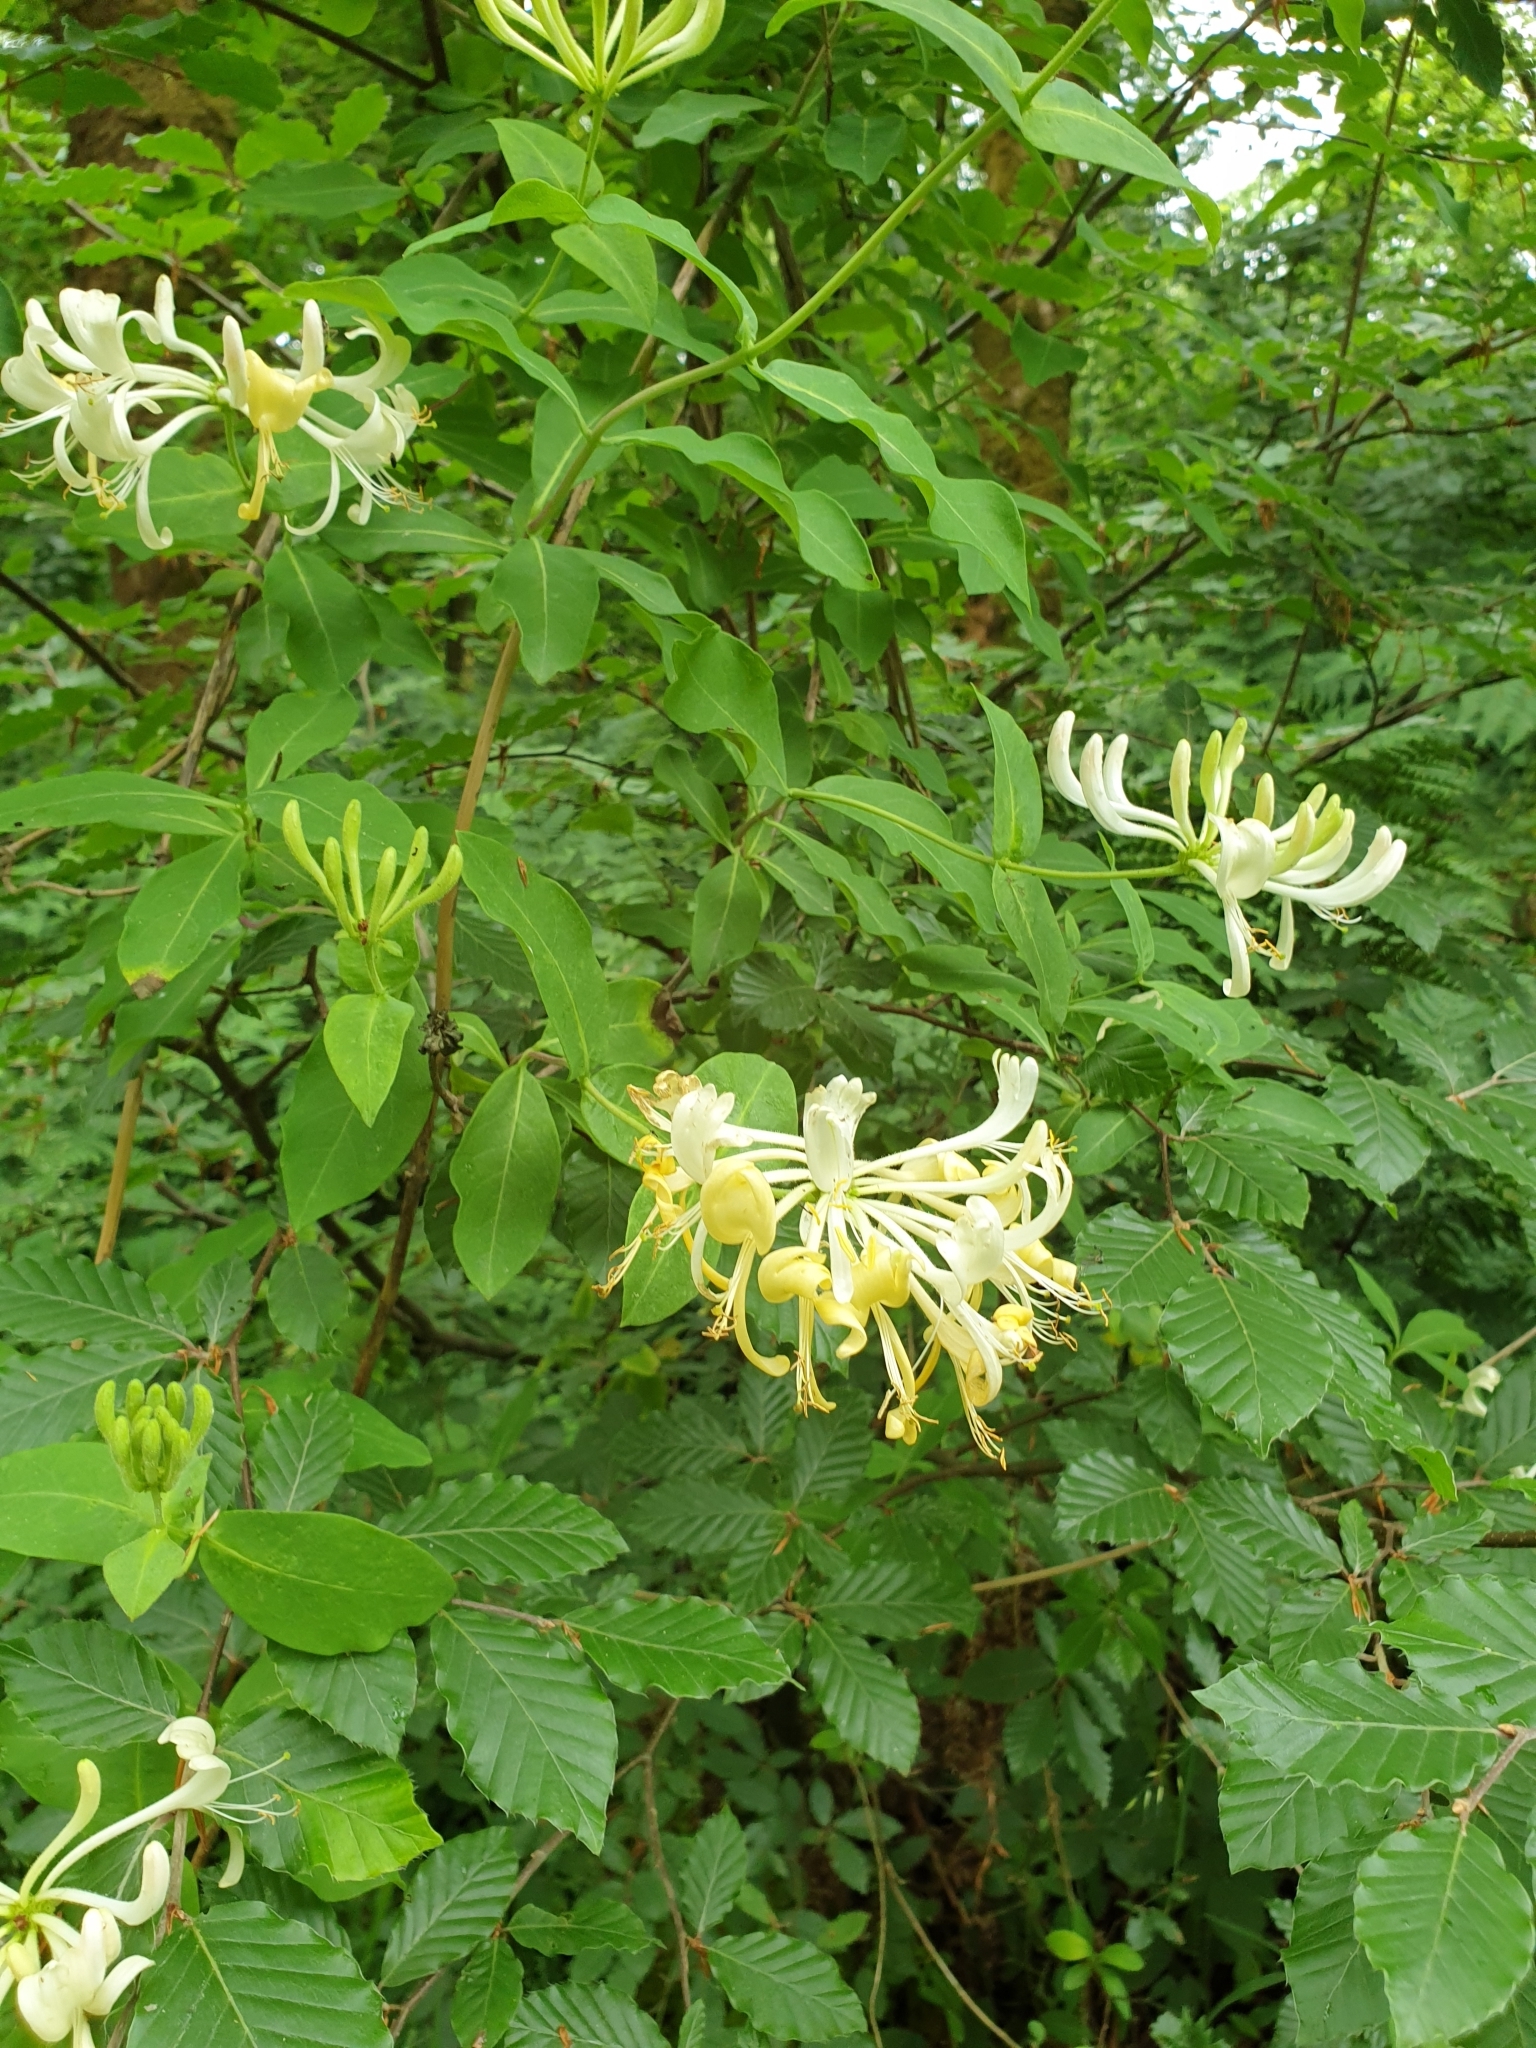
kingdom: Plantae
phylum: Tracheophyta
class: Magnoliopsida
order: Dipsacales
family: Caprifoliaceae
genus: Lonicera
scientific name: Lonicera periclymenum
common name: European honeysuckle
